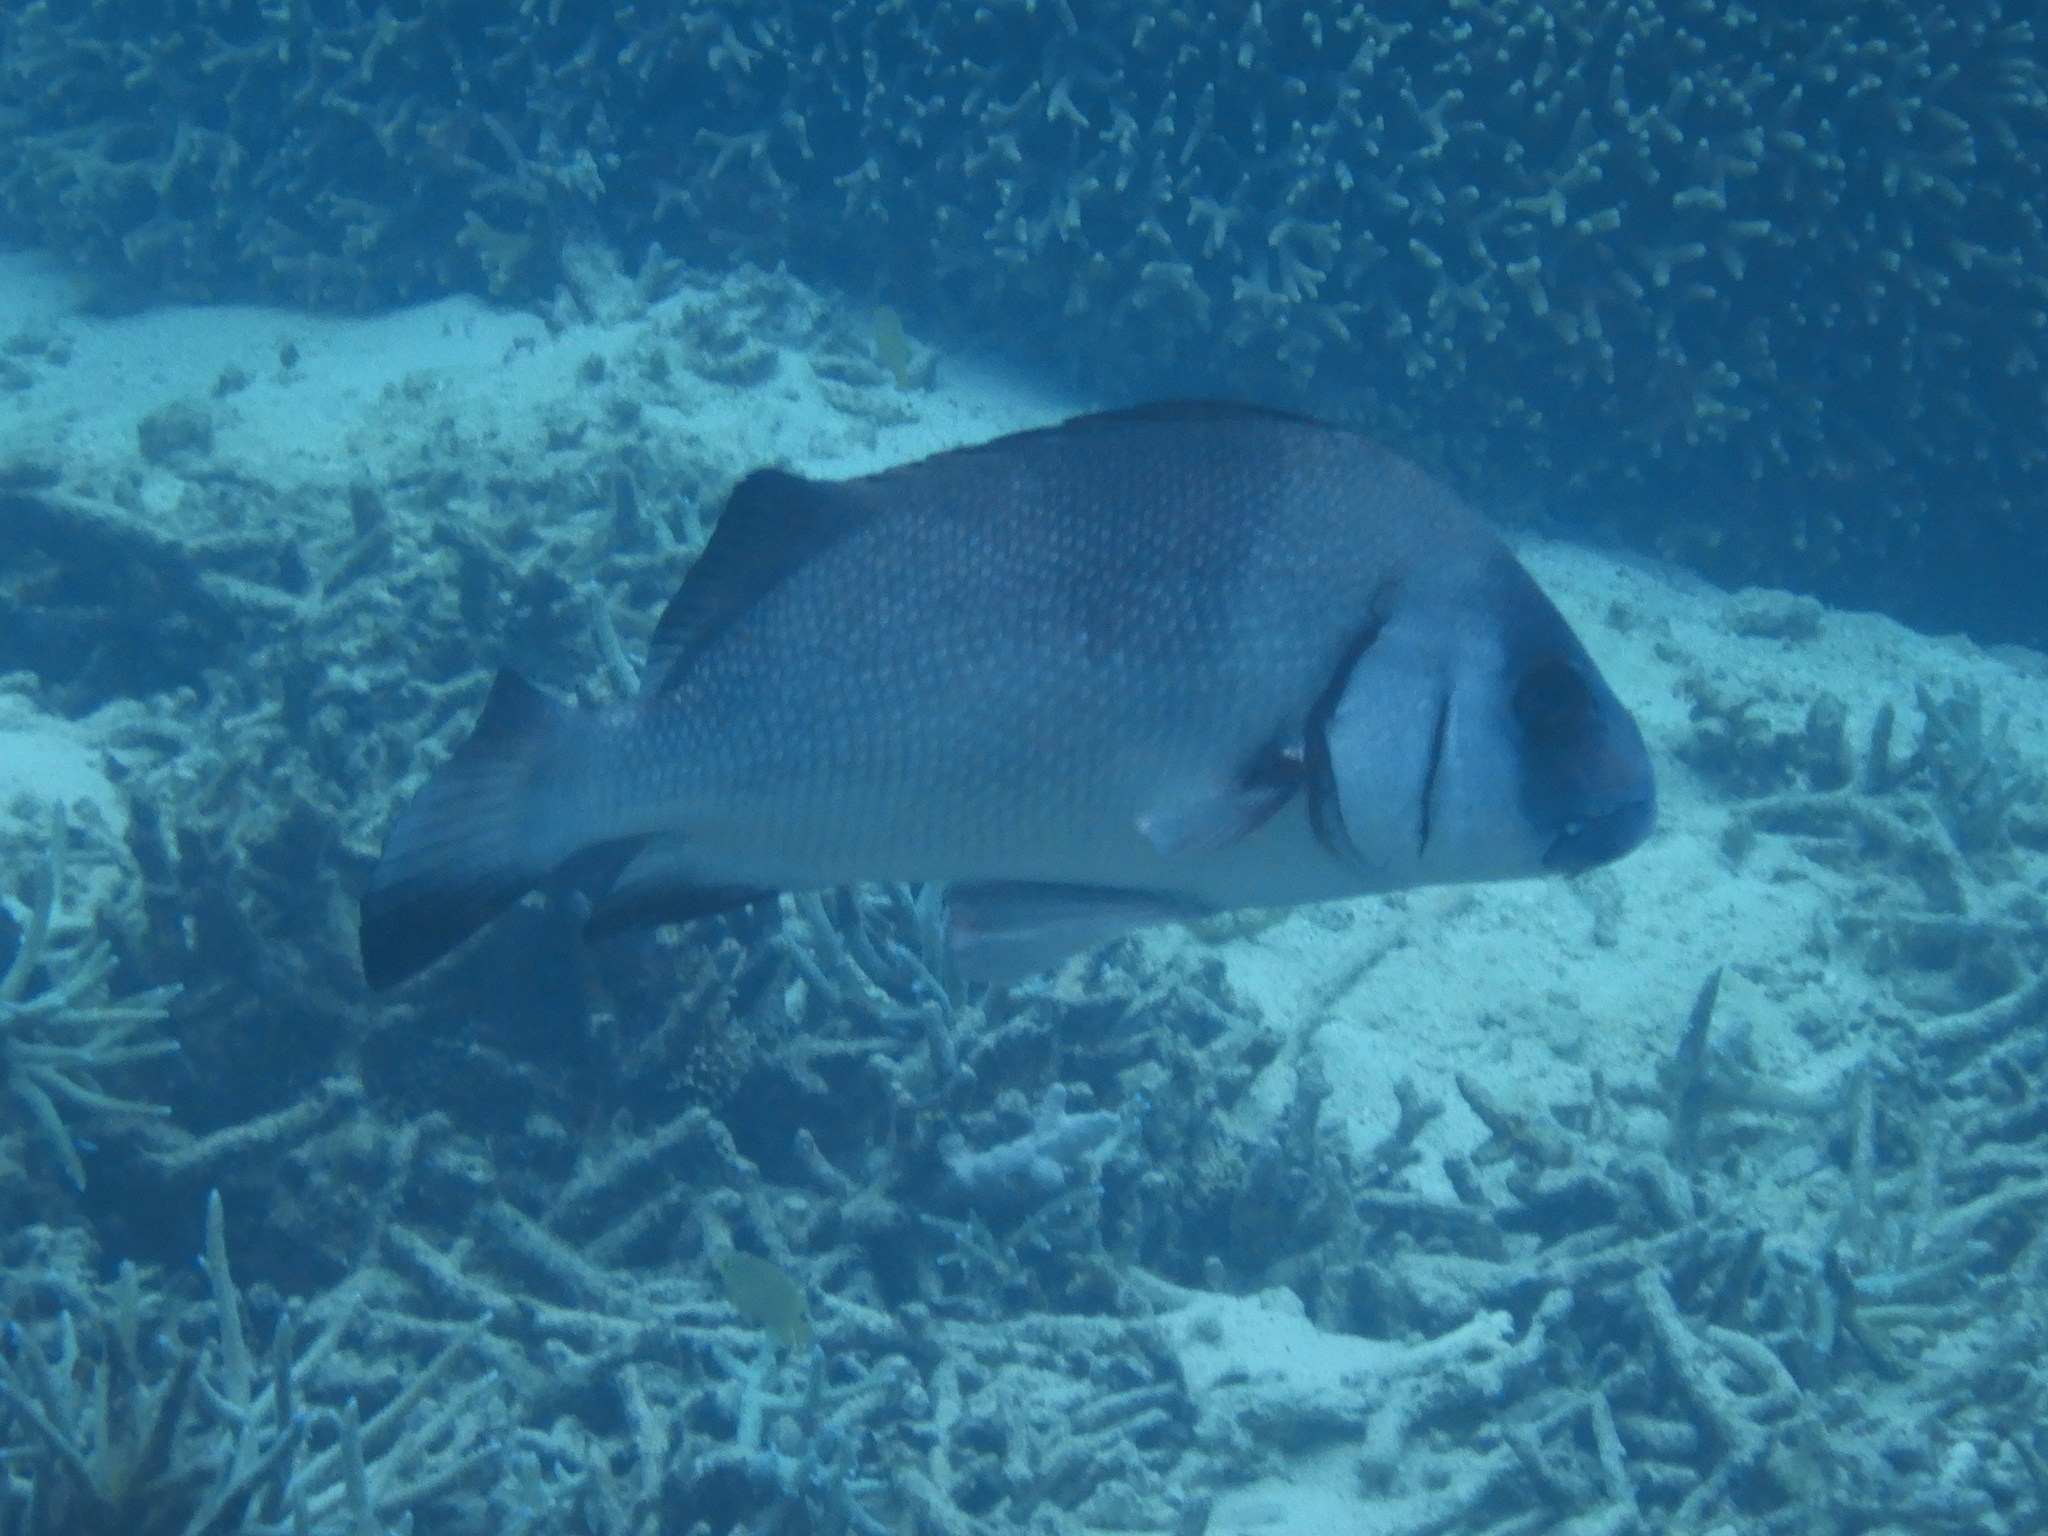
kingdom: Animalia
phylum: Chordata
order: Perciformes
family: Haemulidae
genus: Plectorhinchus
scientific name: Plectorhinchus gibbosus
